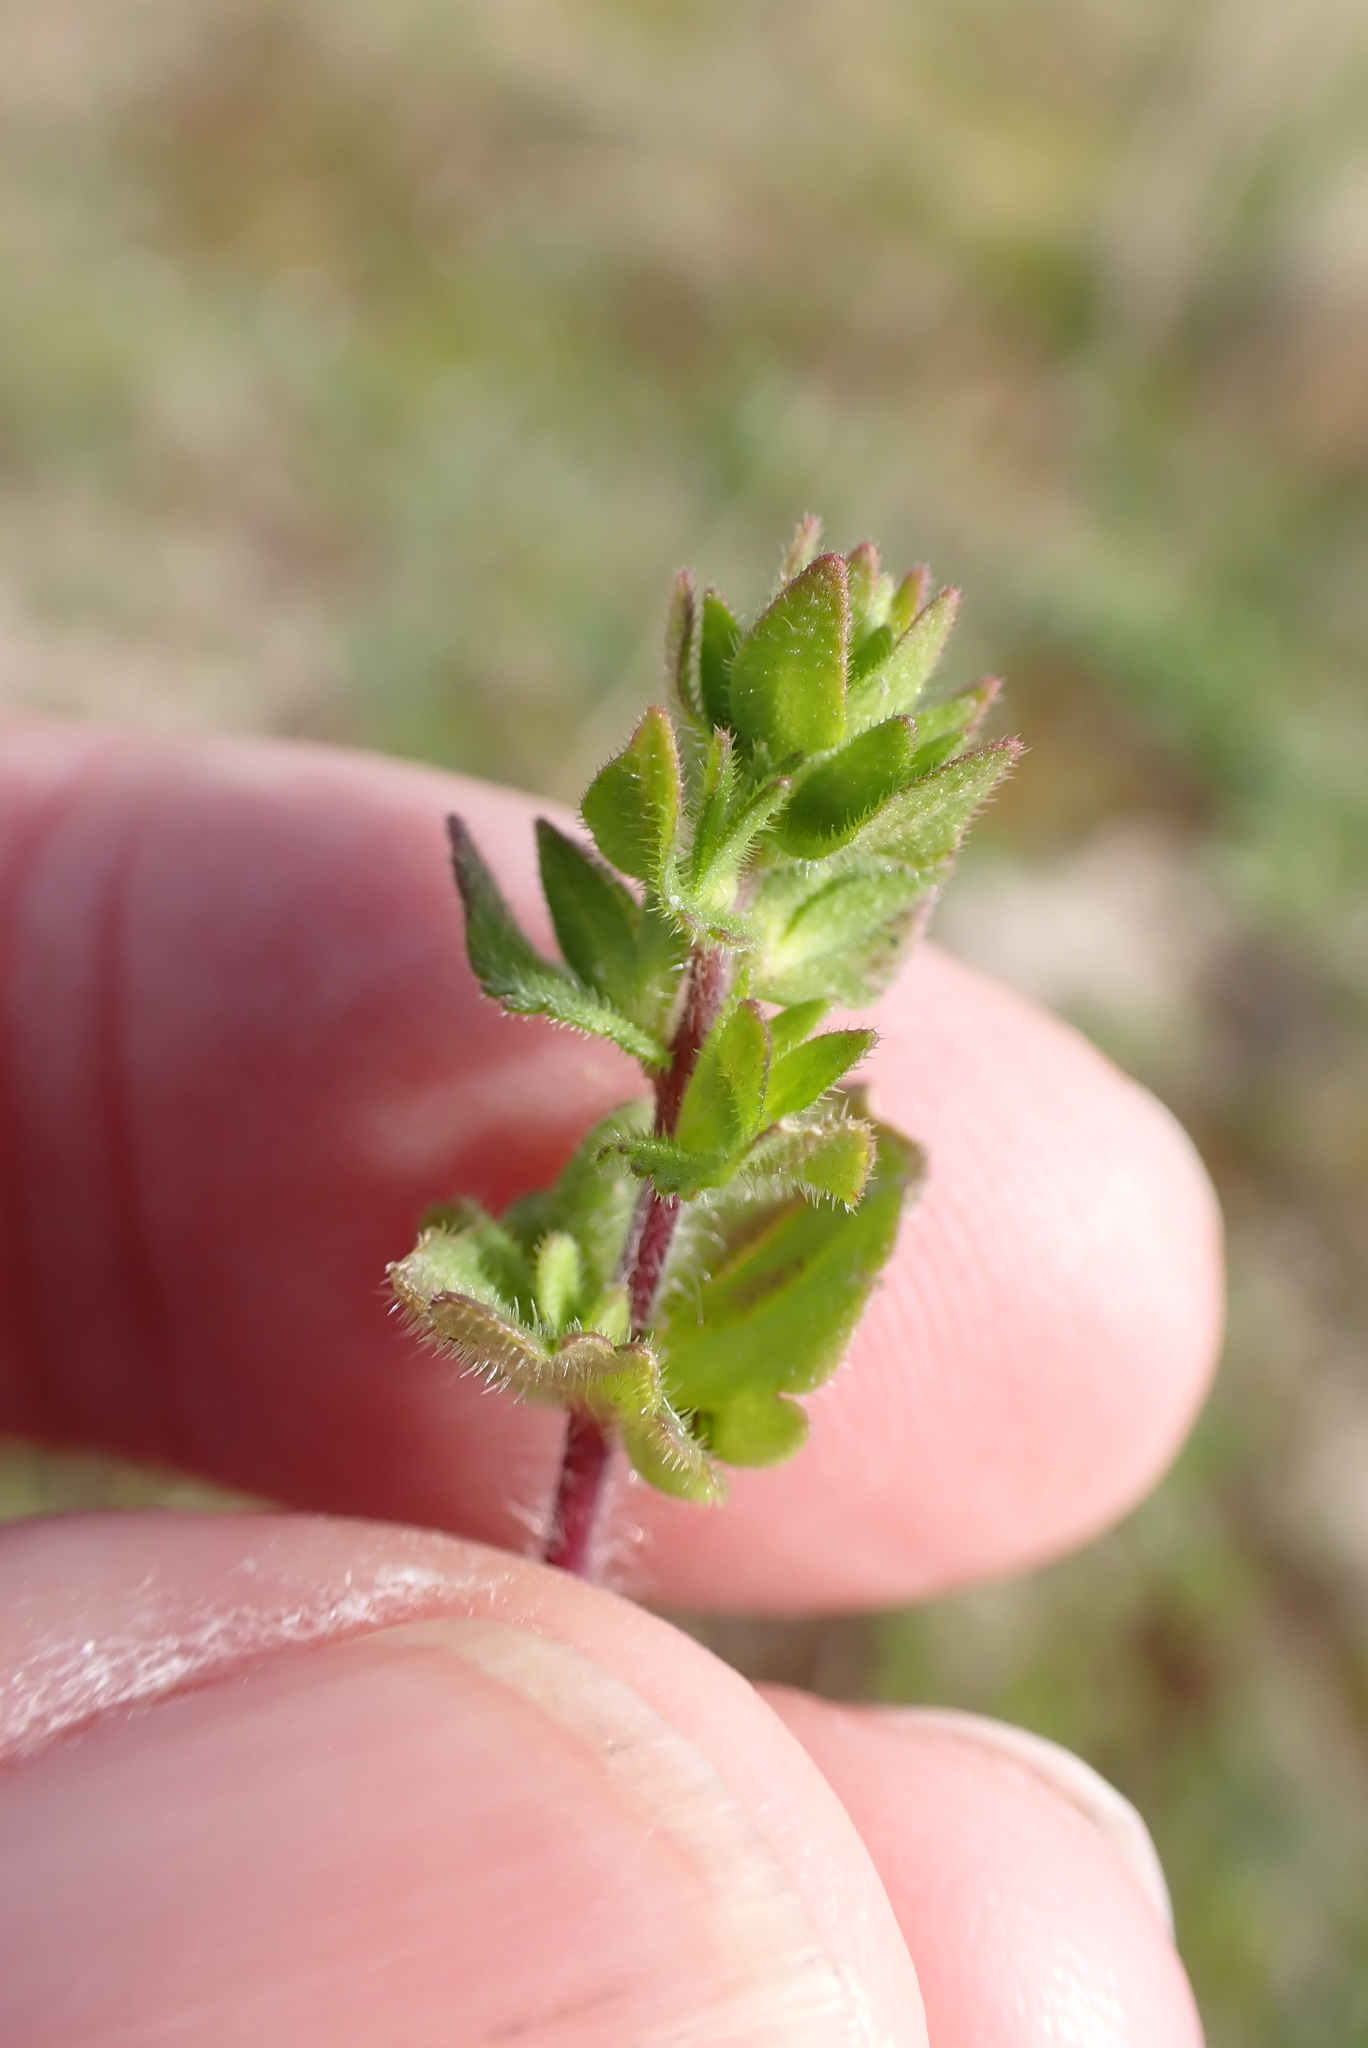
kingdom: Plantae
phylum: Tracheophyta
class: Magnoliopsida
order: Lamiales
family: Plantaginaceae
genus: Veronica
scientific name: Veronica arvensis
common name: Corn speedwell
